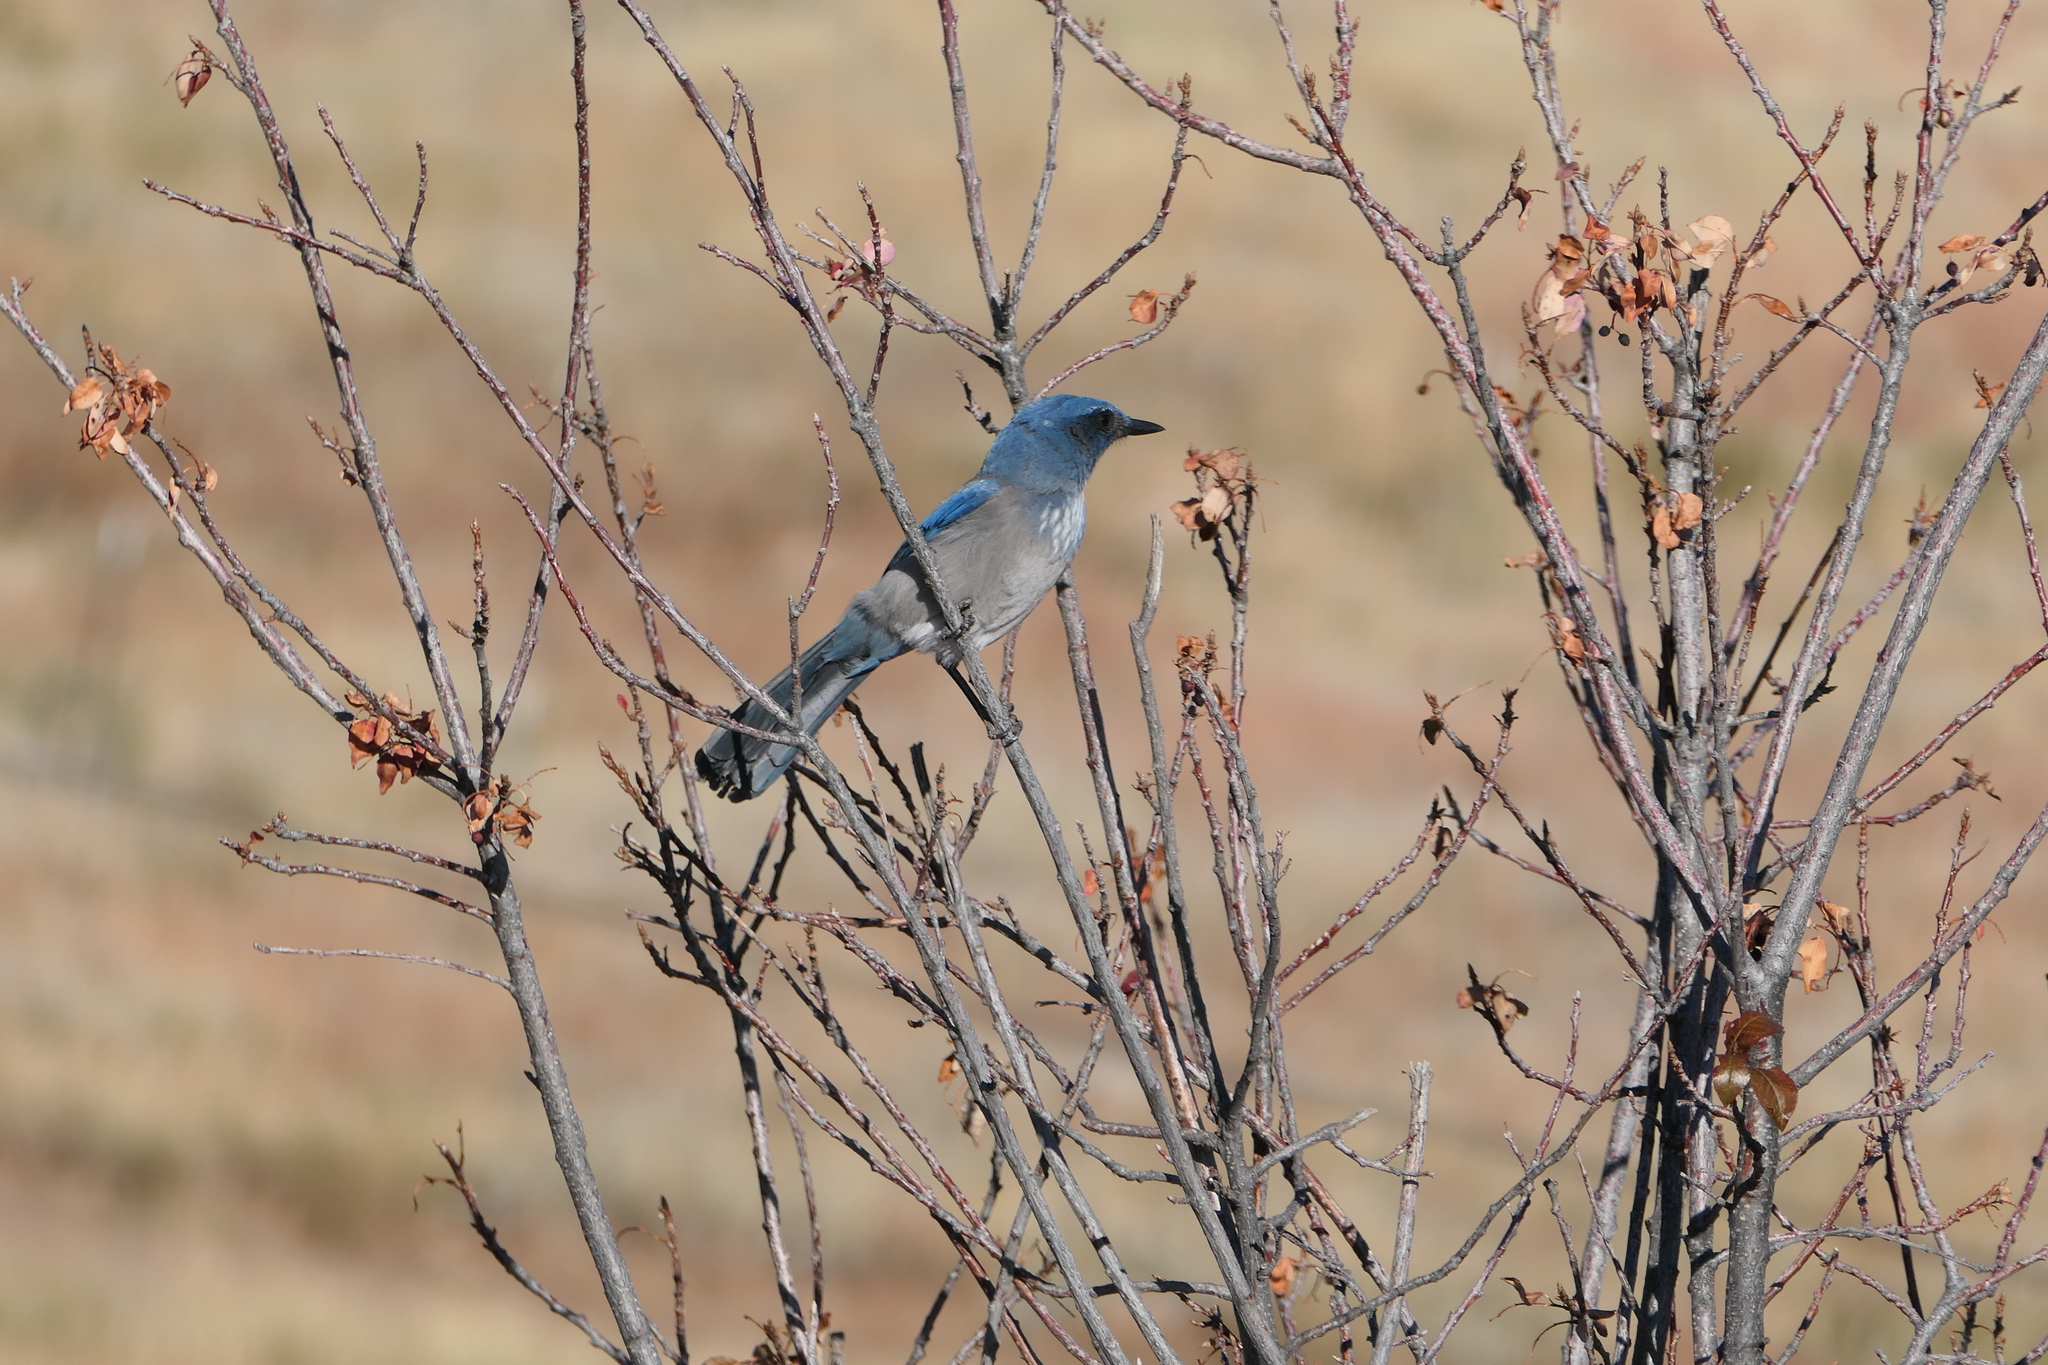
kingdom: Animalia
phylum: Chordata
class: Aves
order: Passeriformes
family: Corvidae
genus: Aphelocoma
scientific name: Aphelocoma woodhouseii
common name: Woodhouse's scrub-jay
